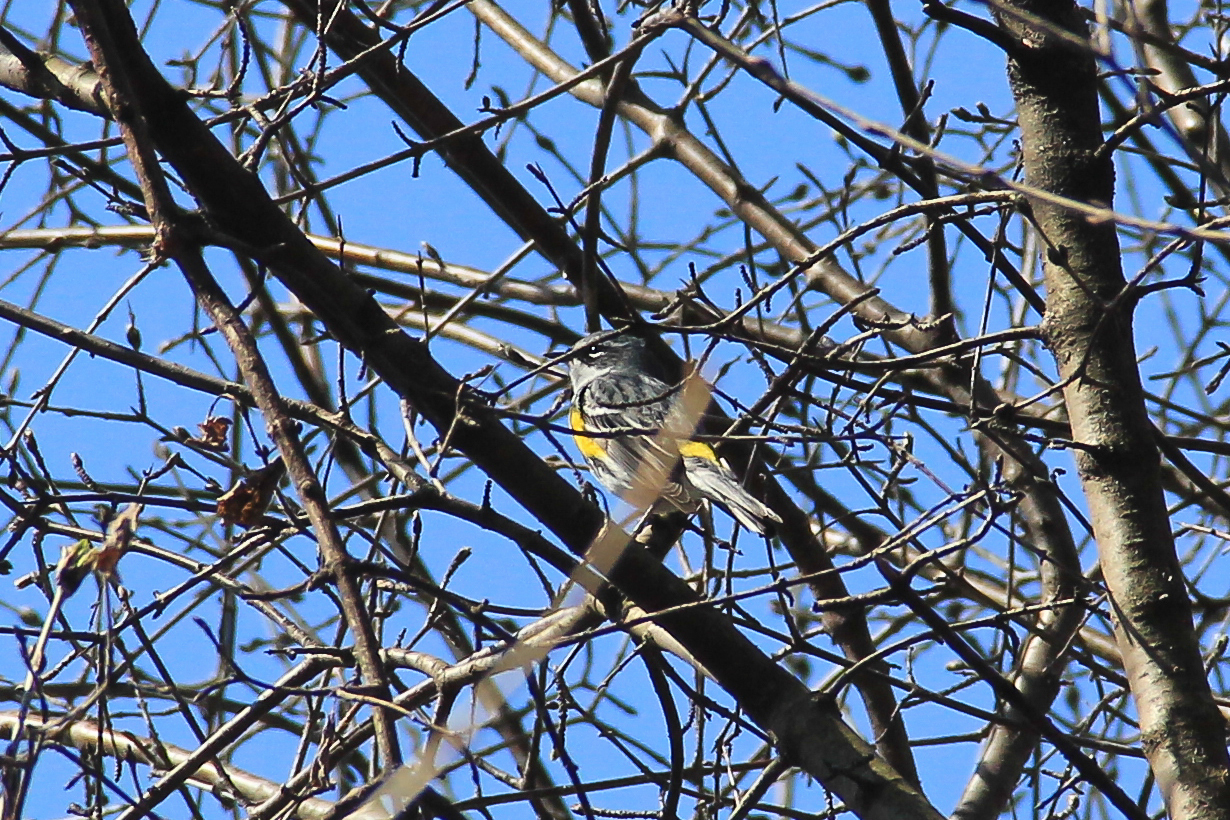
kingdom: Animalia
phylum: Chordata
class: Aves
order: Passeriformes
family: Parulidae
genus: Setophaga
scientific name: Setophaga coronata
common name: Myrtle warbler
